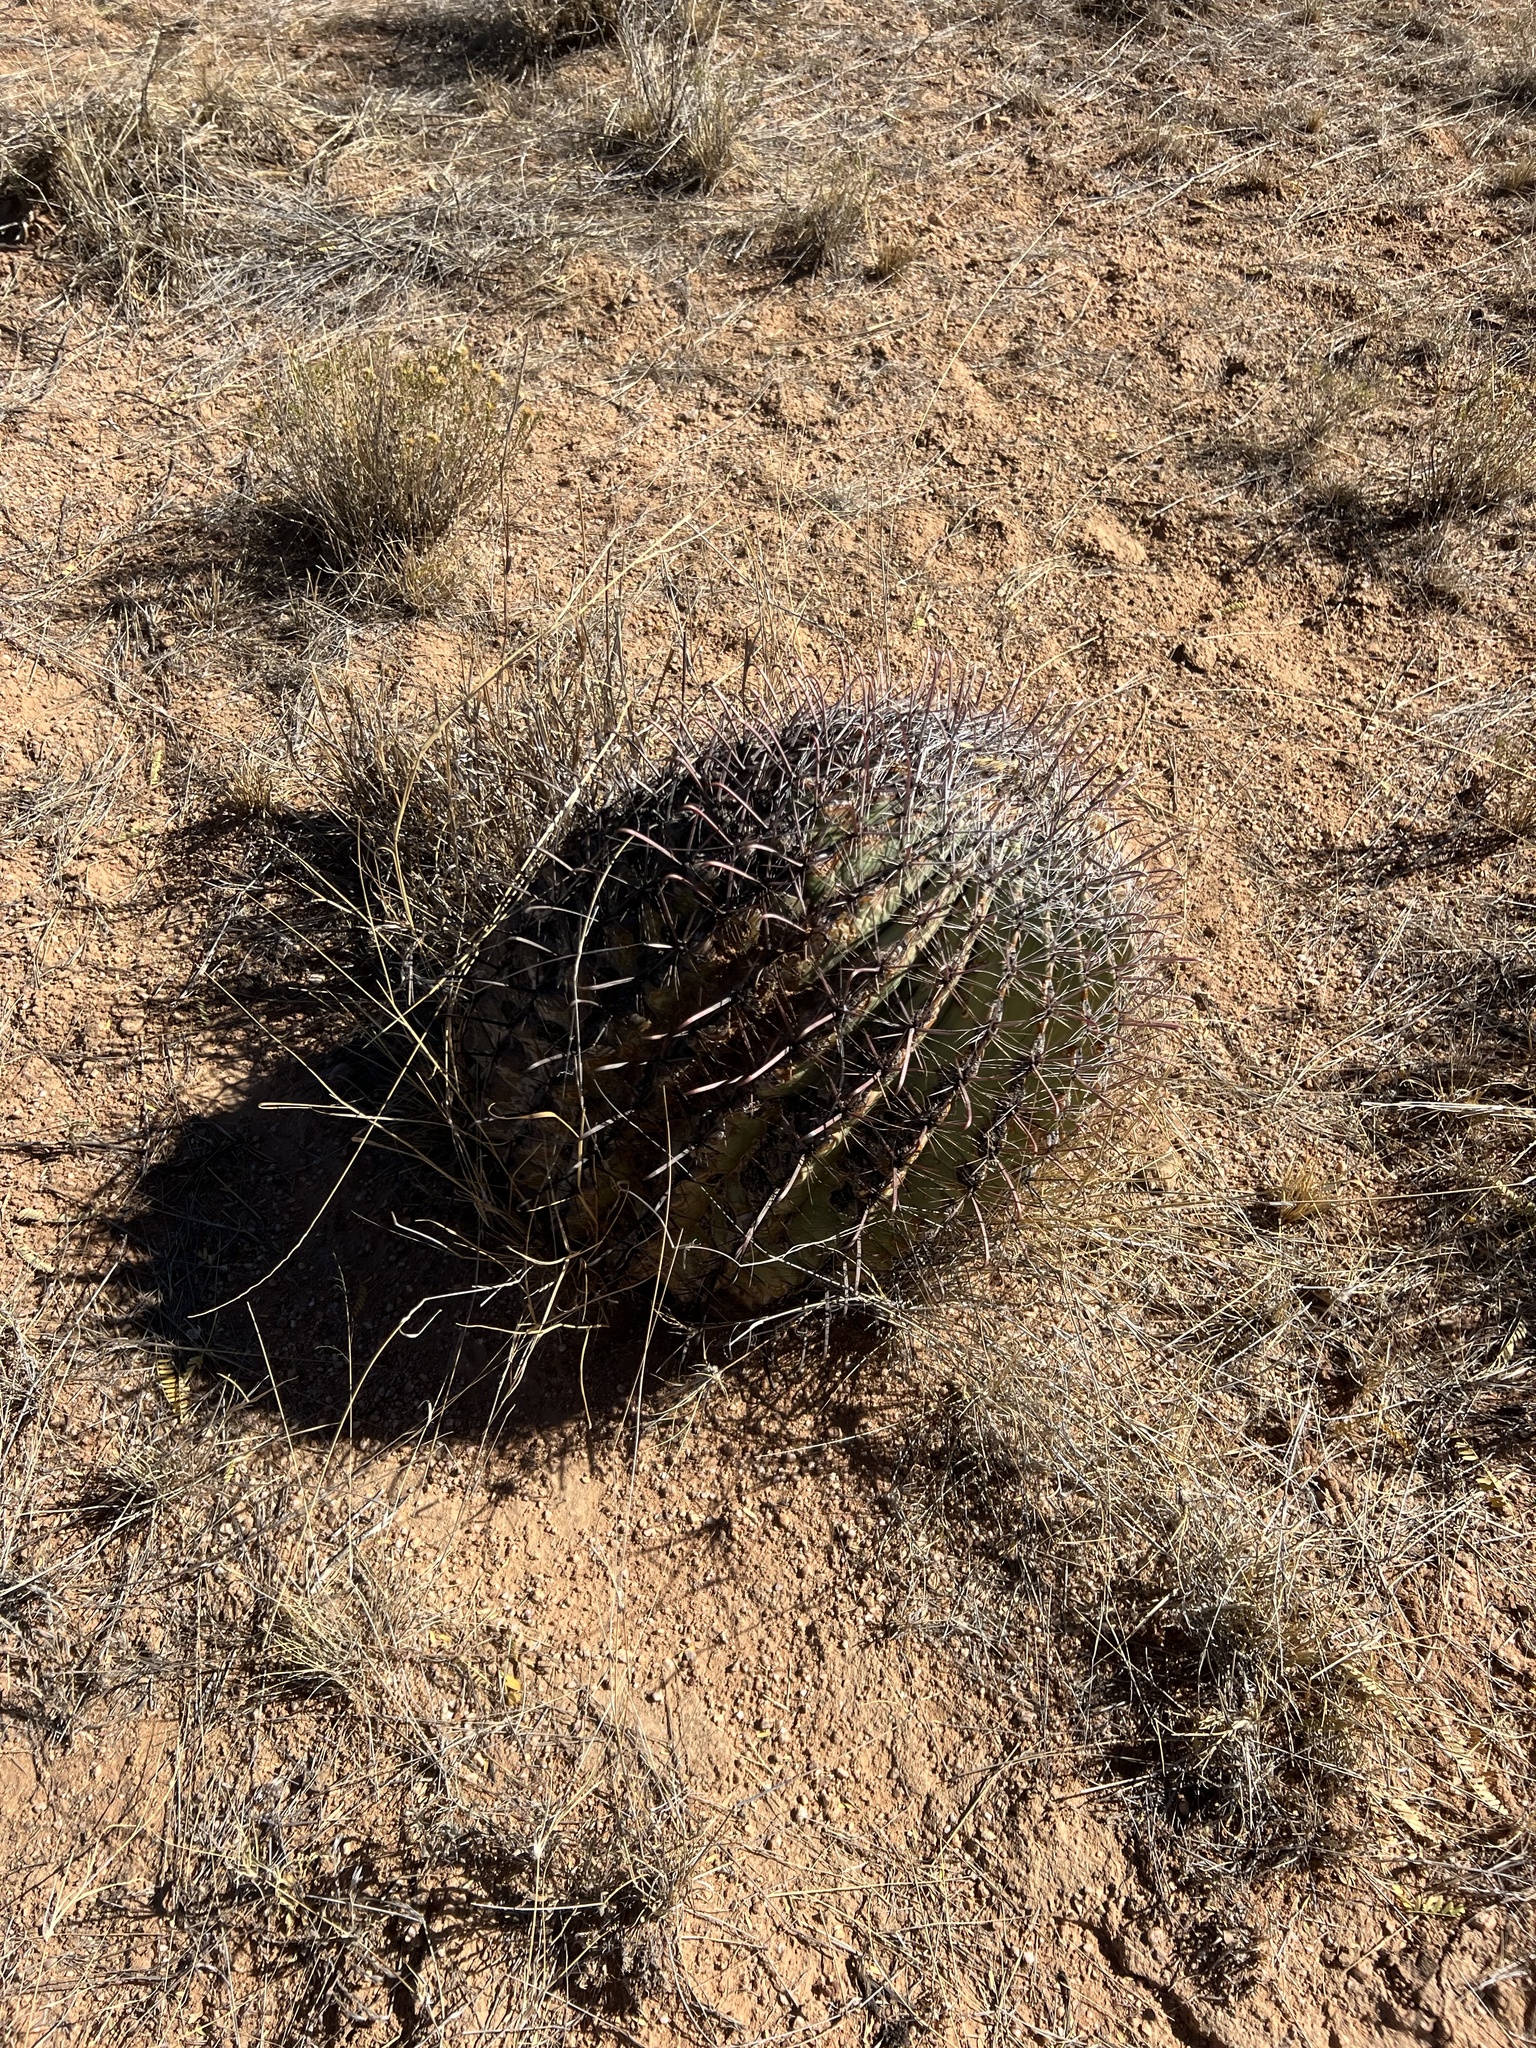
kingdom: Plantae
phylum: Tracheophyta
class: Magnoliopsida
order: Caryophyllales
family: Cactaceae
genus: Ferocactus
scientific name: Ferocactus wislizeni
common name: Candy barrel cactus
